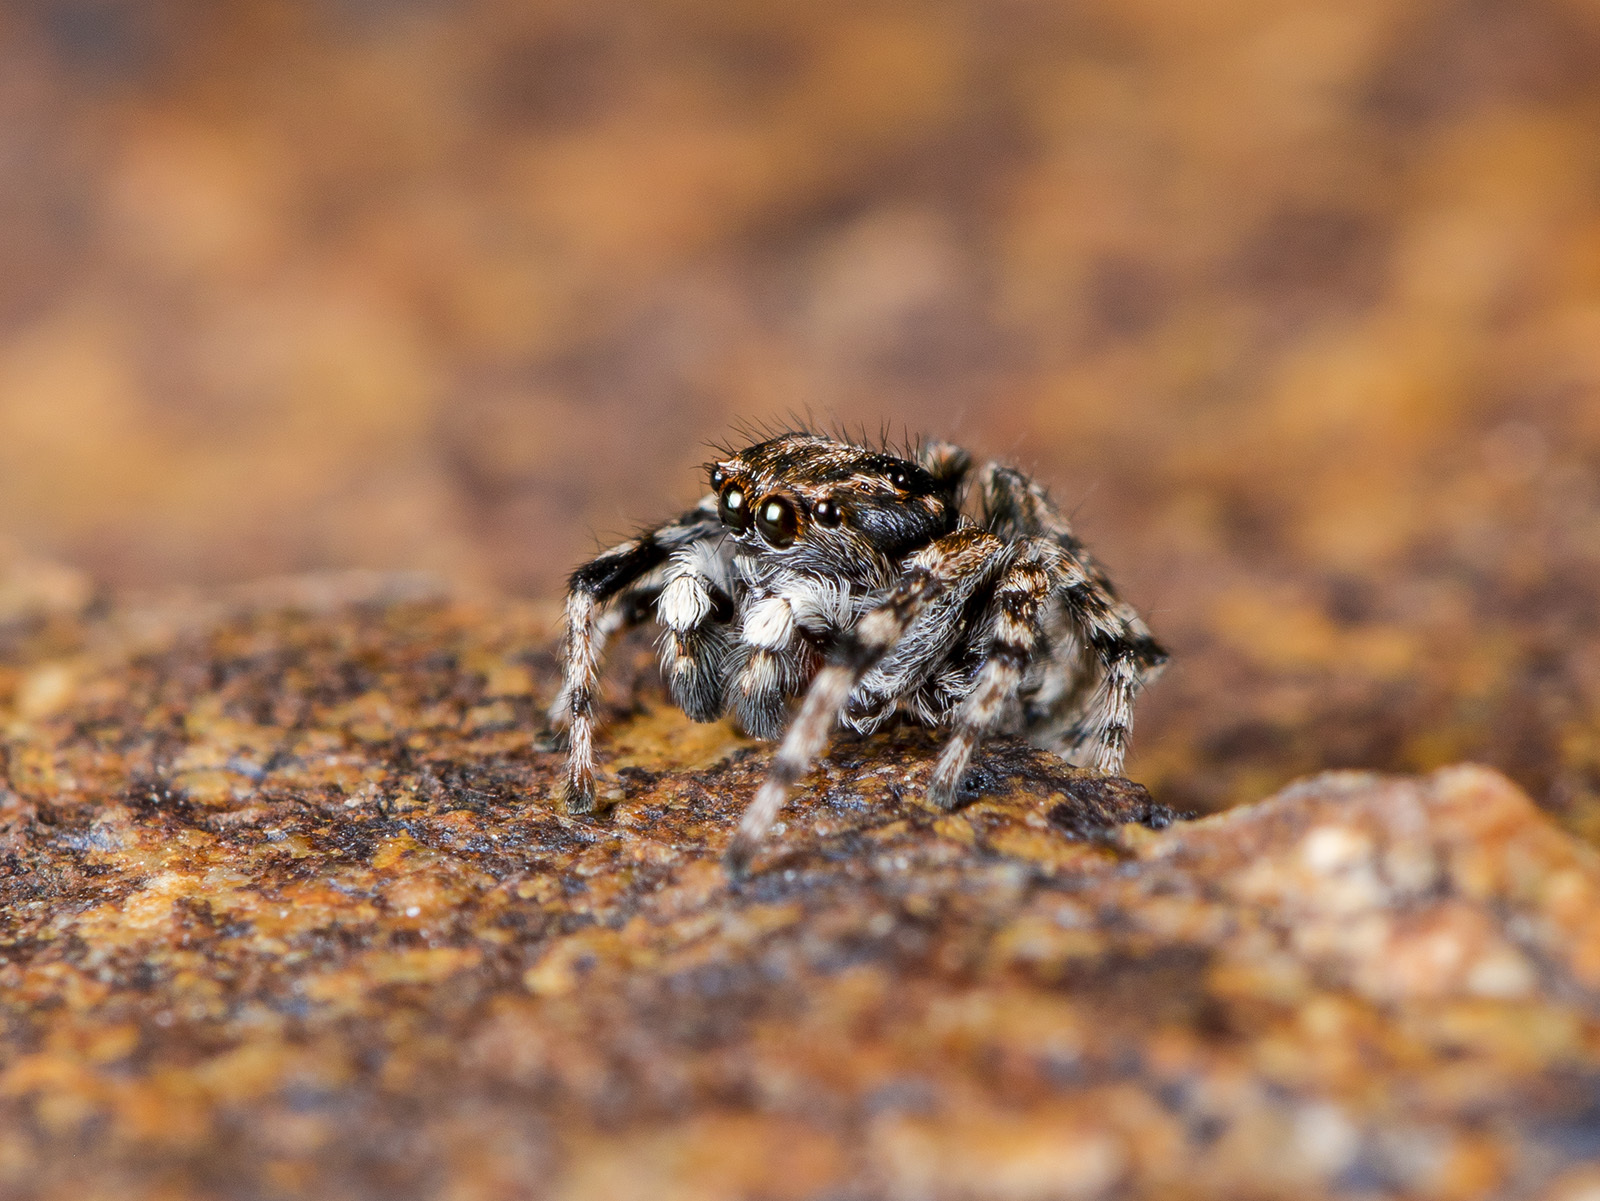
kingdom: Animalia
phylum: Arthropoda
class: Arachnida
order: Araneae
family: Salticidae
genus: Attulus
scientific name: Attulus distinguendus
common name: Distinguished jumper
